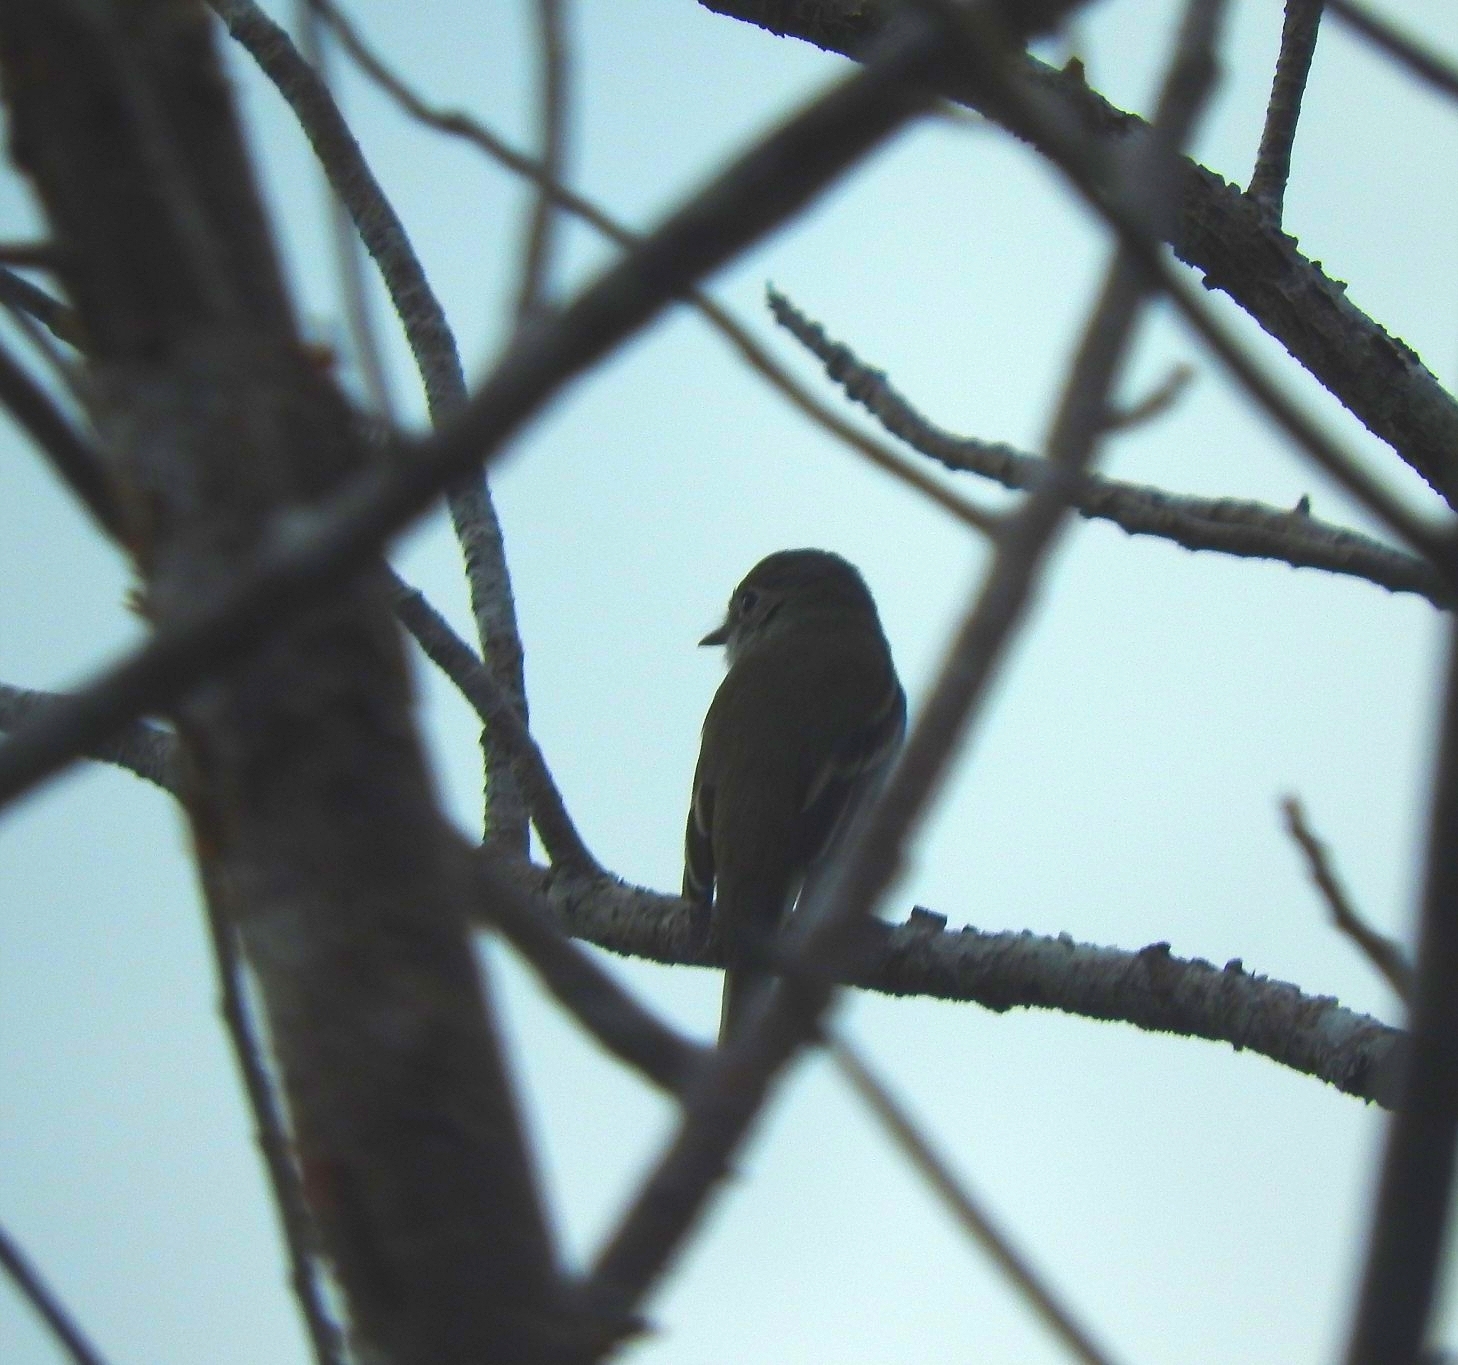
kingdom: Animalia
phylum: Chordata
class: Aves
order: Passeriformes
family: Tyrannidae
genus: Empidonax
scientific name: Empidonax minimus
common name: Least flycatcher
